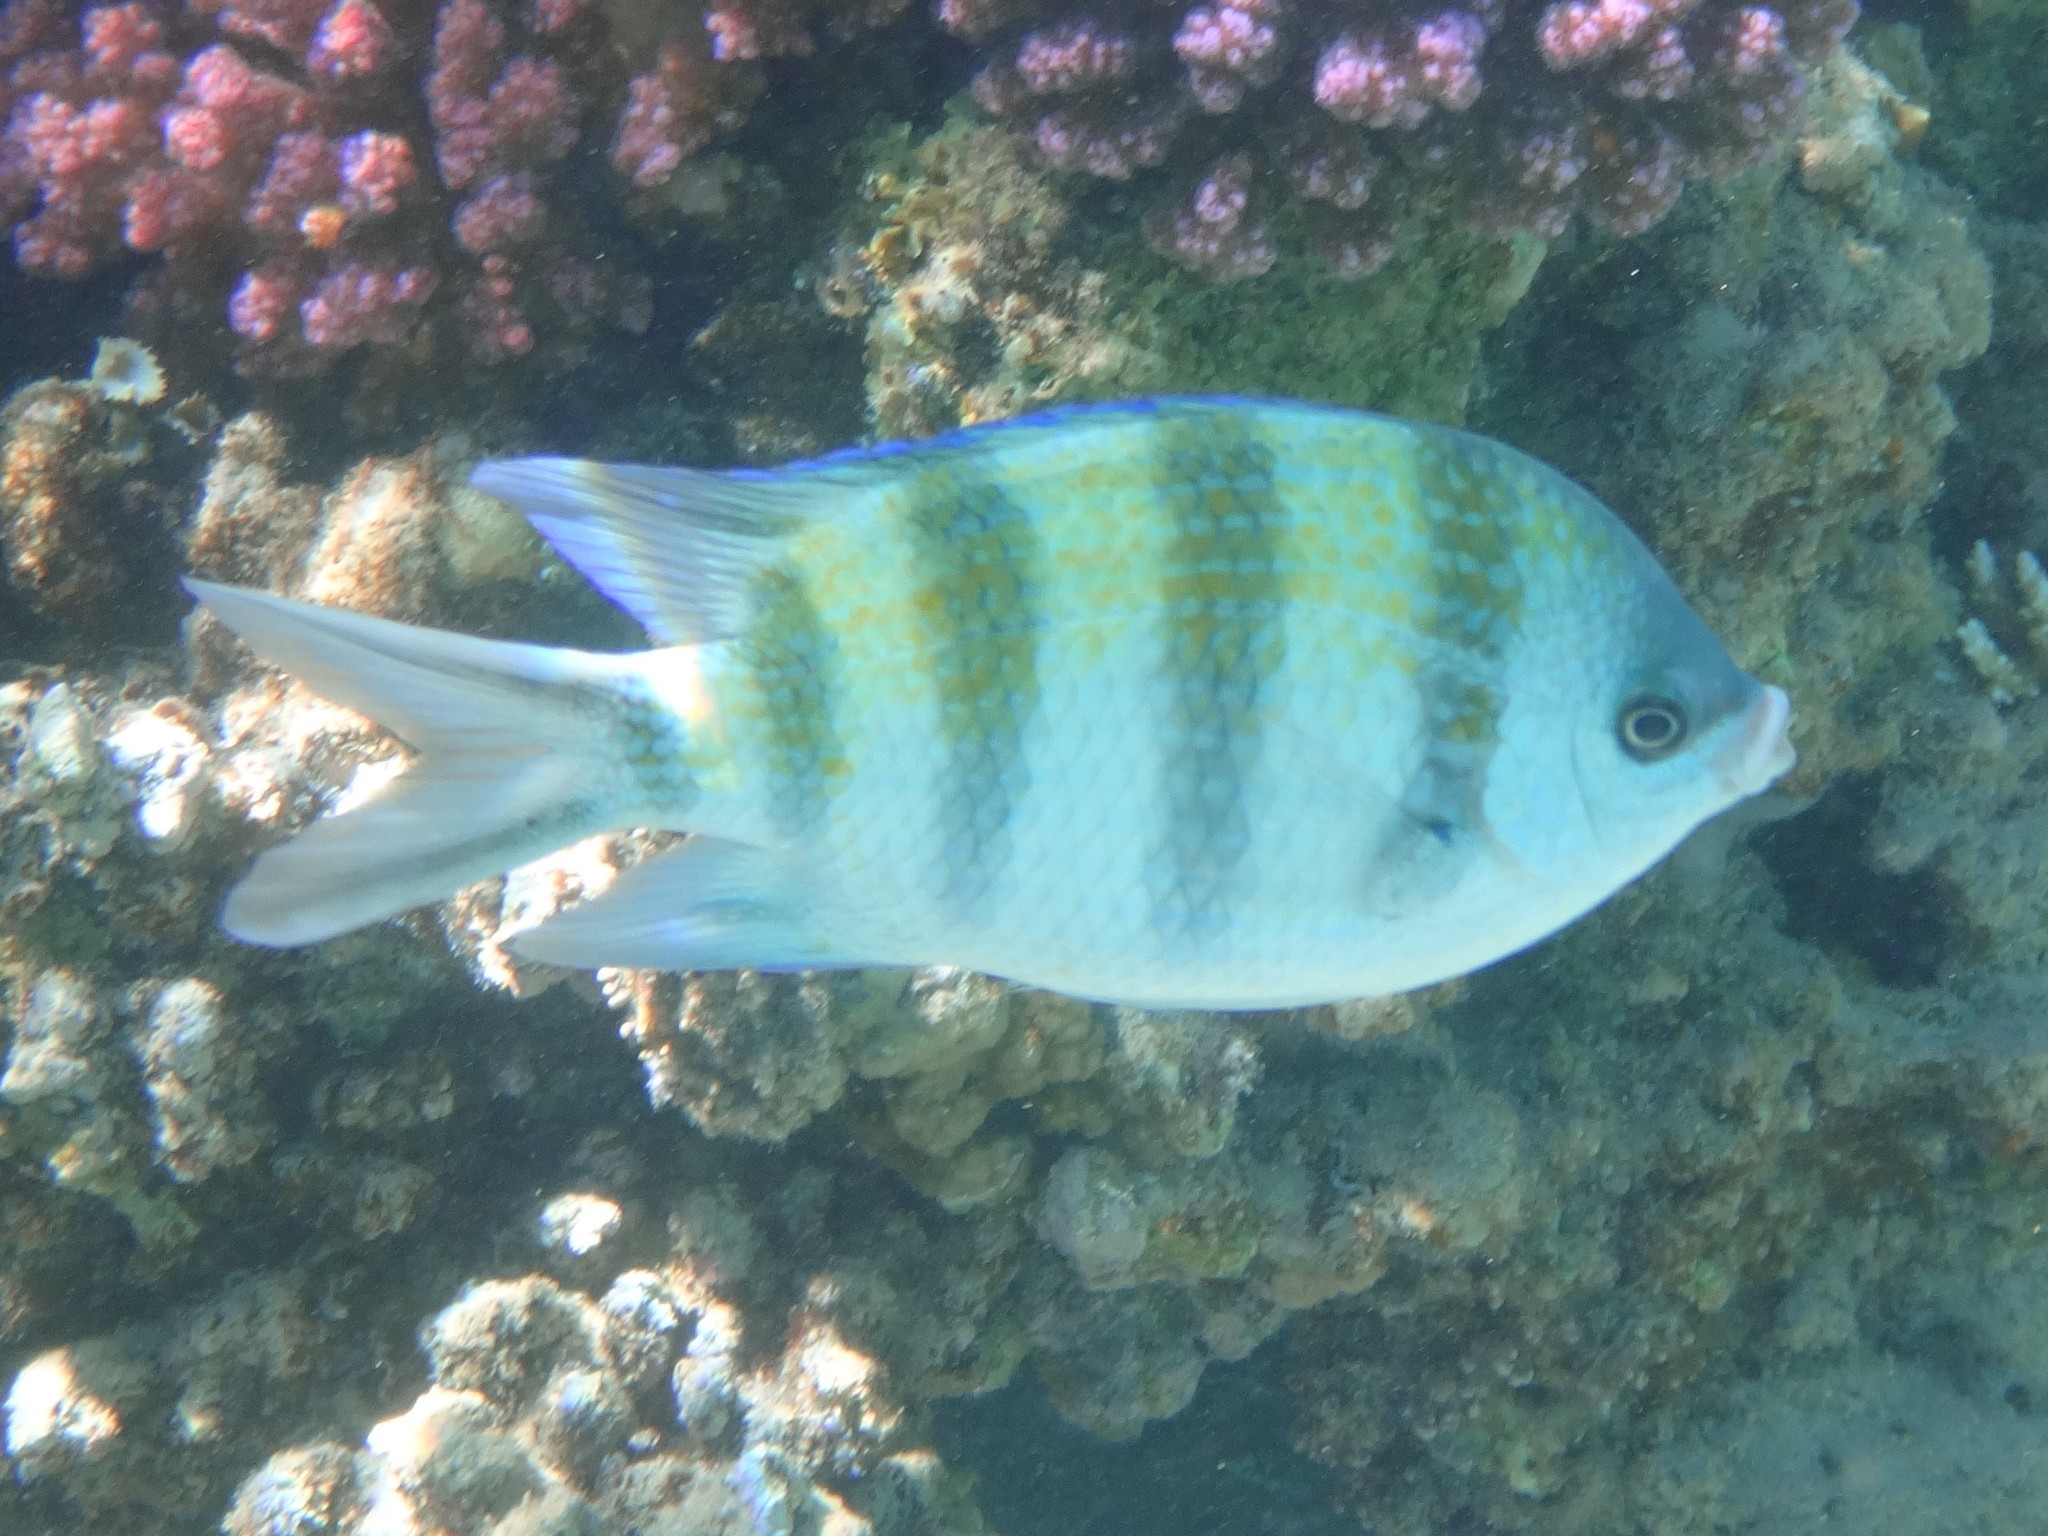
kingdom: Animalia
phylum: Chordata
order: Perciformes
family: Pomacentridae
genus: Abudefduf
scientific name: Abudefduf sexfasciatus
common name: Scissortail sergeant
